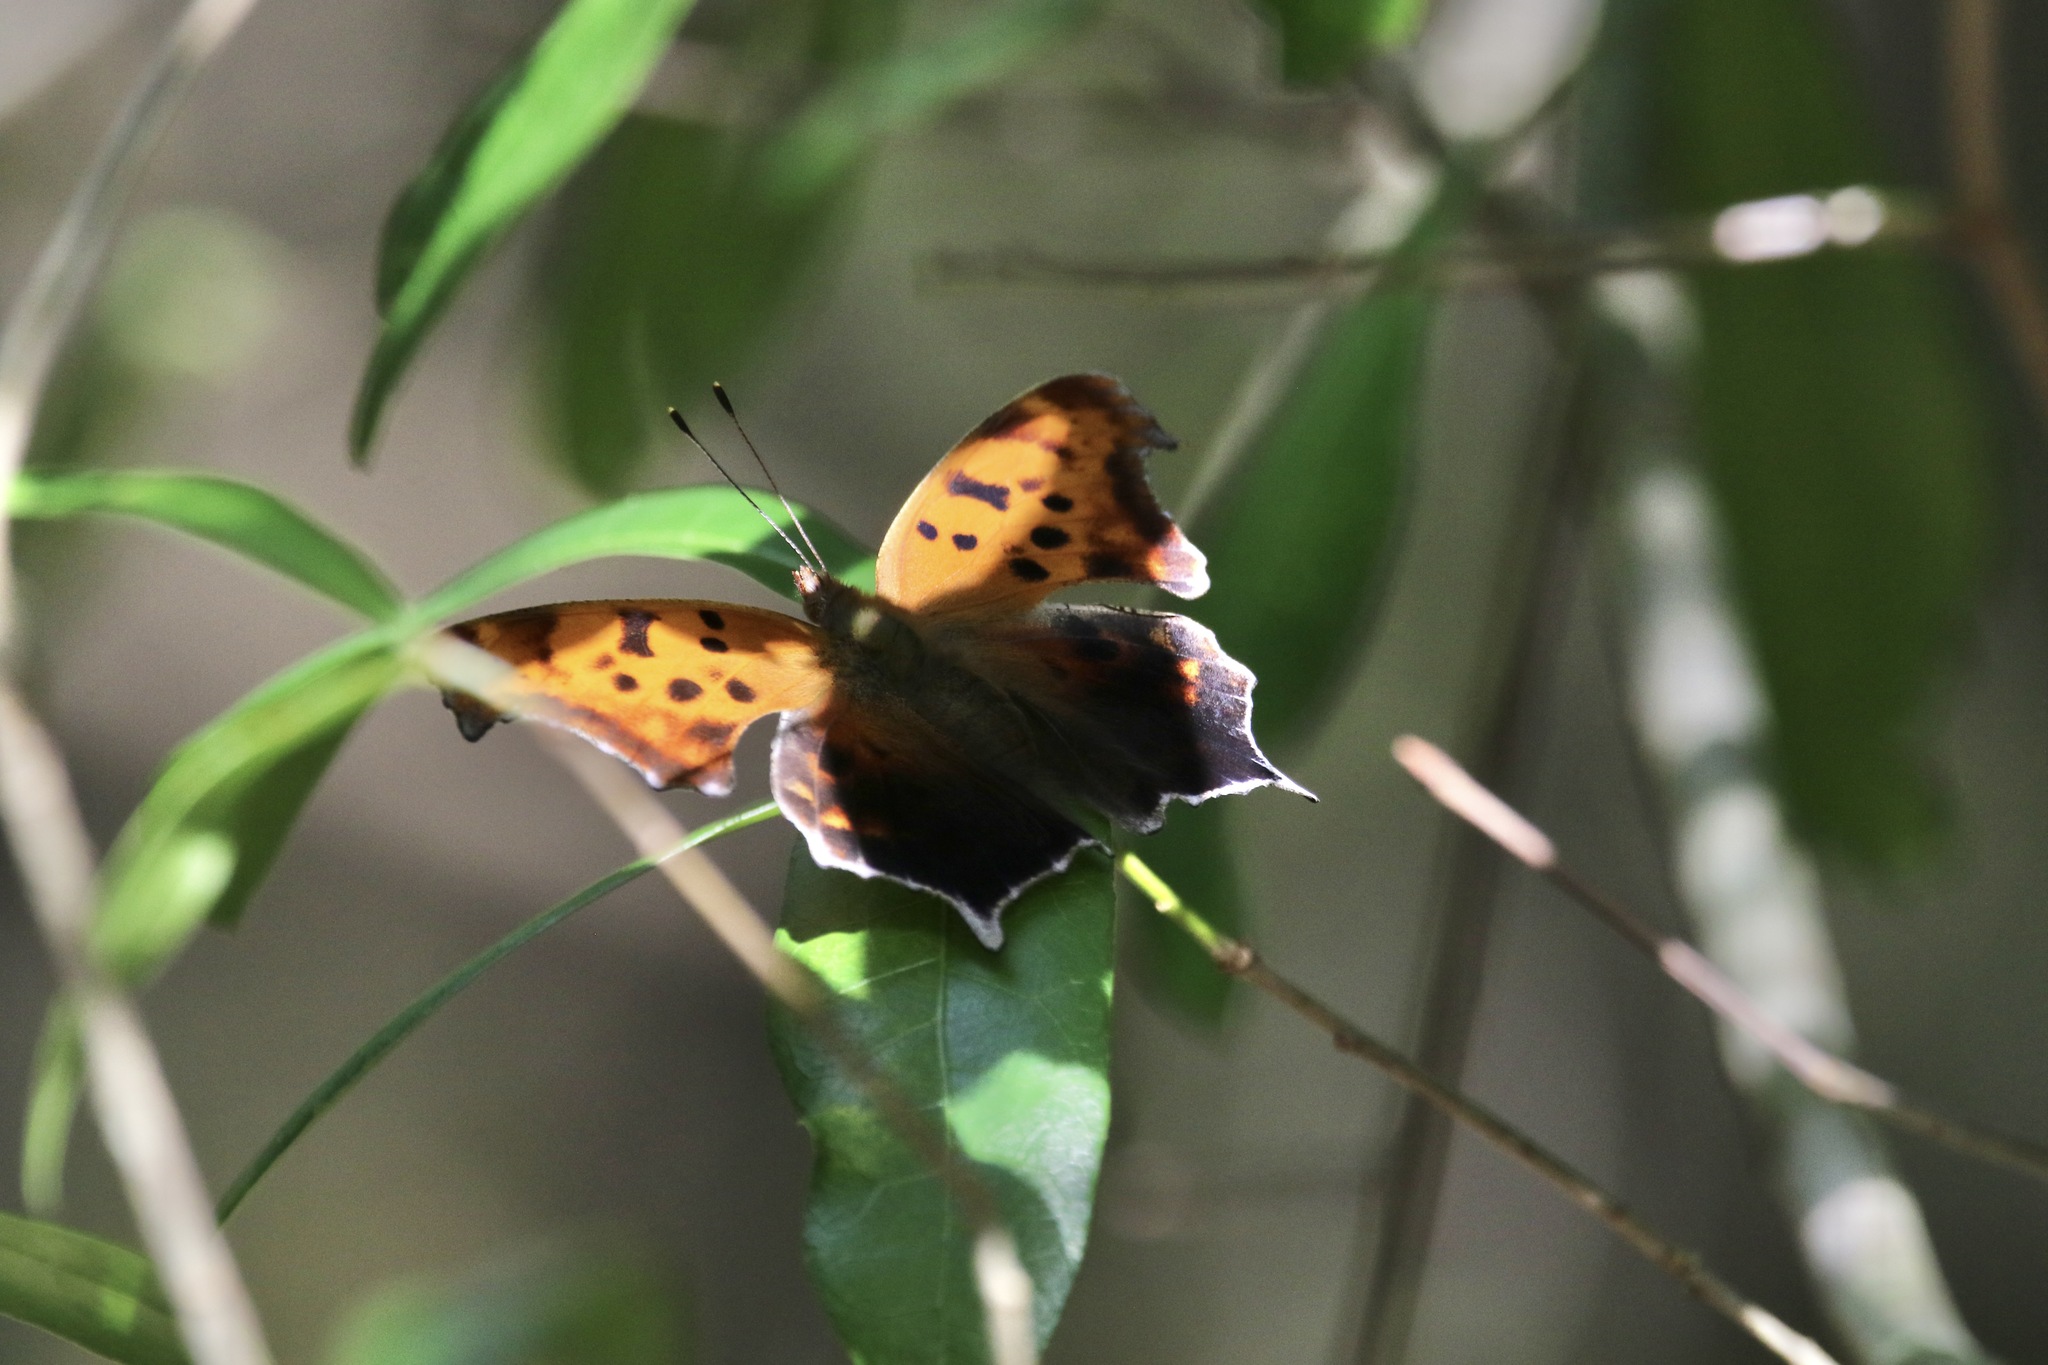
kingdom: Animalia
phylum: Arthropoda
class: Insecta
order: Lepidoptera
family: Nymphalidae
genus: Polygonia
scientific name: Polygonia interrogationis
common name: Question mark
